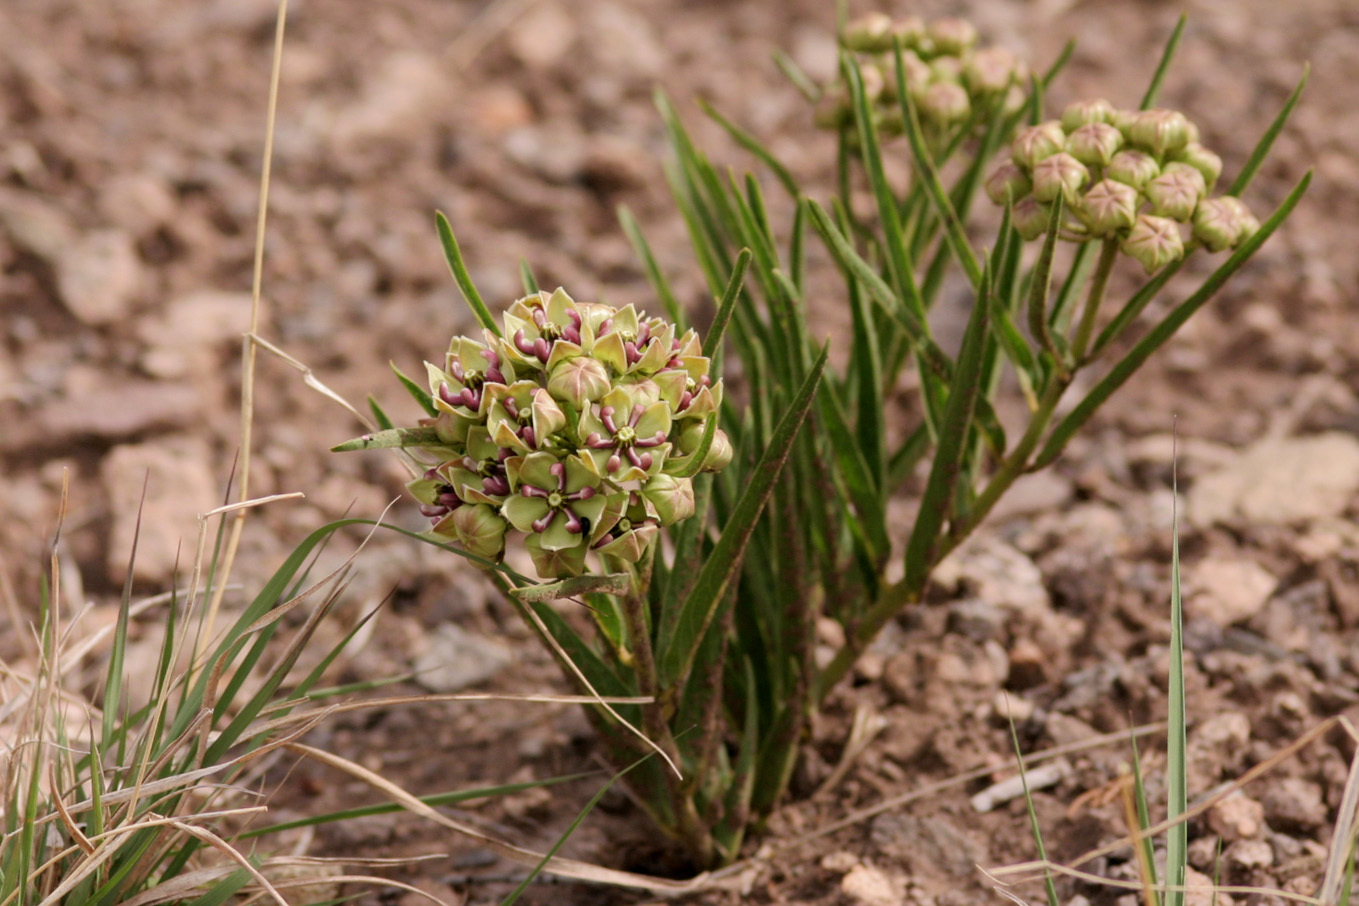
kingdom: Plantae
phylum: Tracheophyta
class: Magnoliopsida
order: Gentianales
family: Apocynaceae
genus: Asclepias
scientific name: Asclepias asperula
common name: Antelope horns
